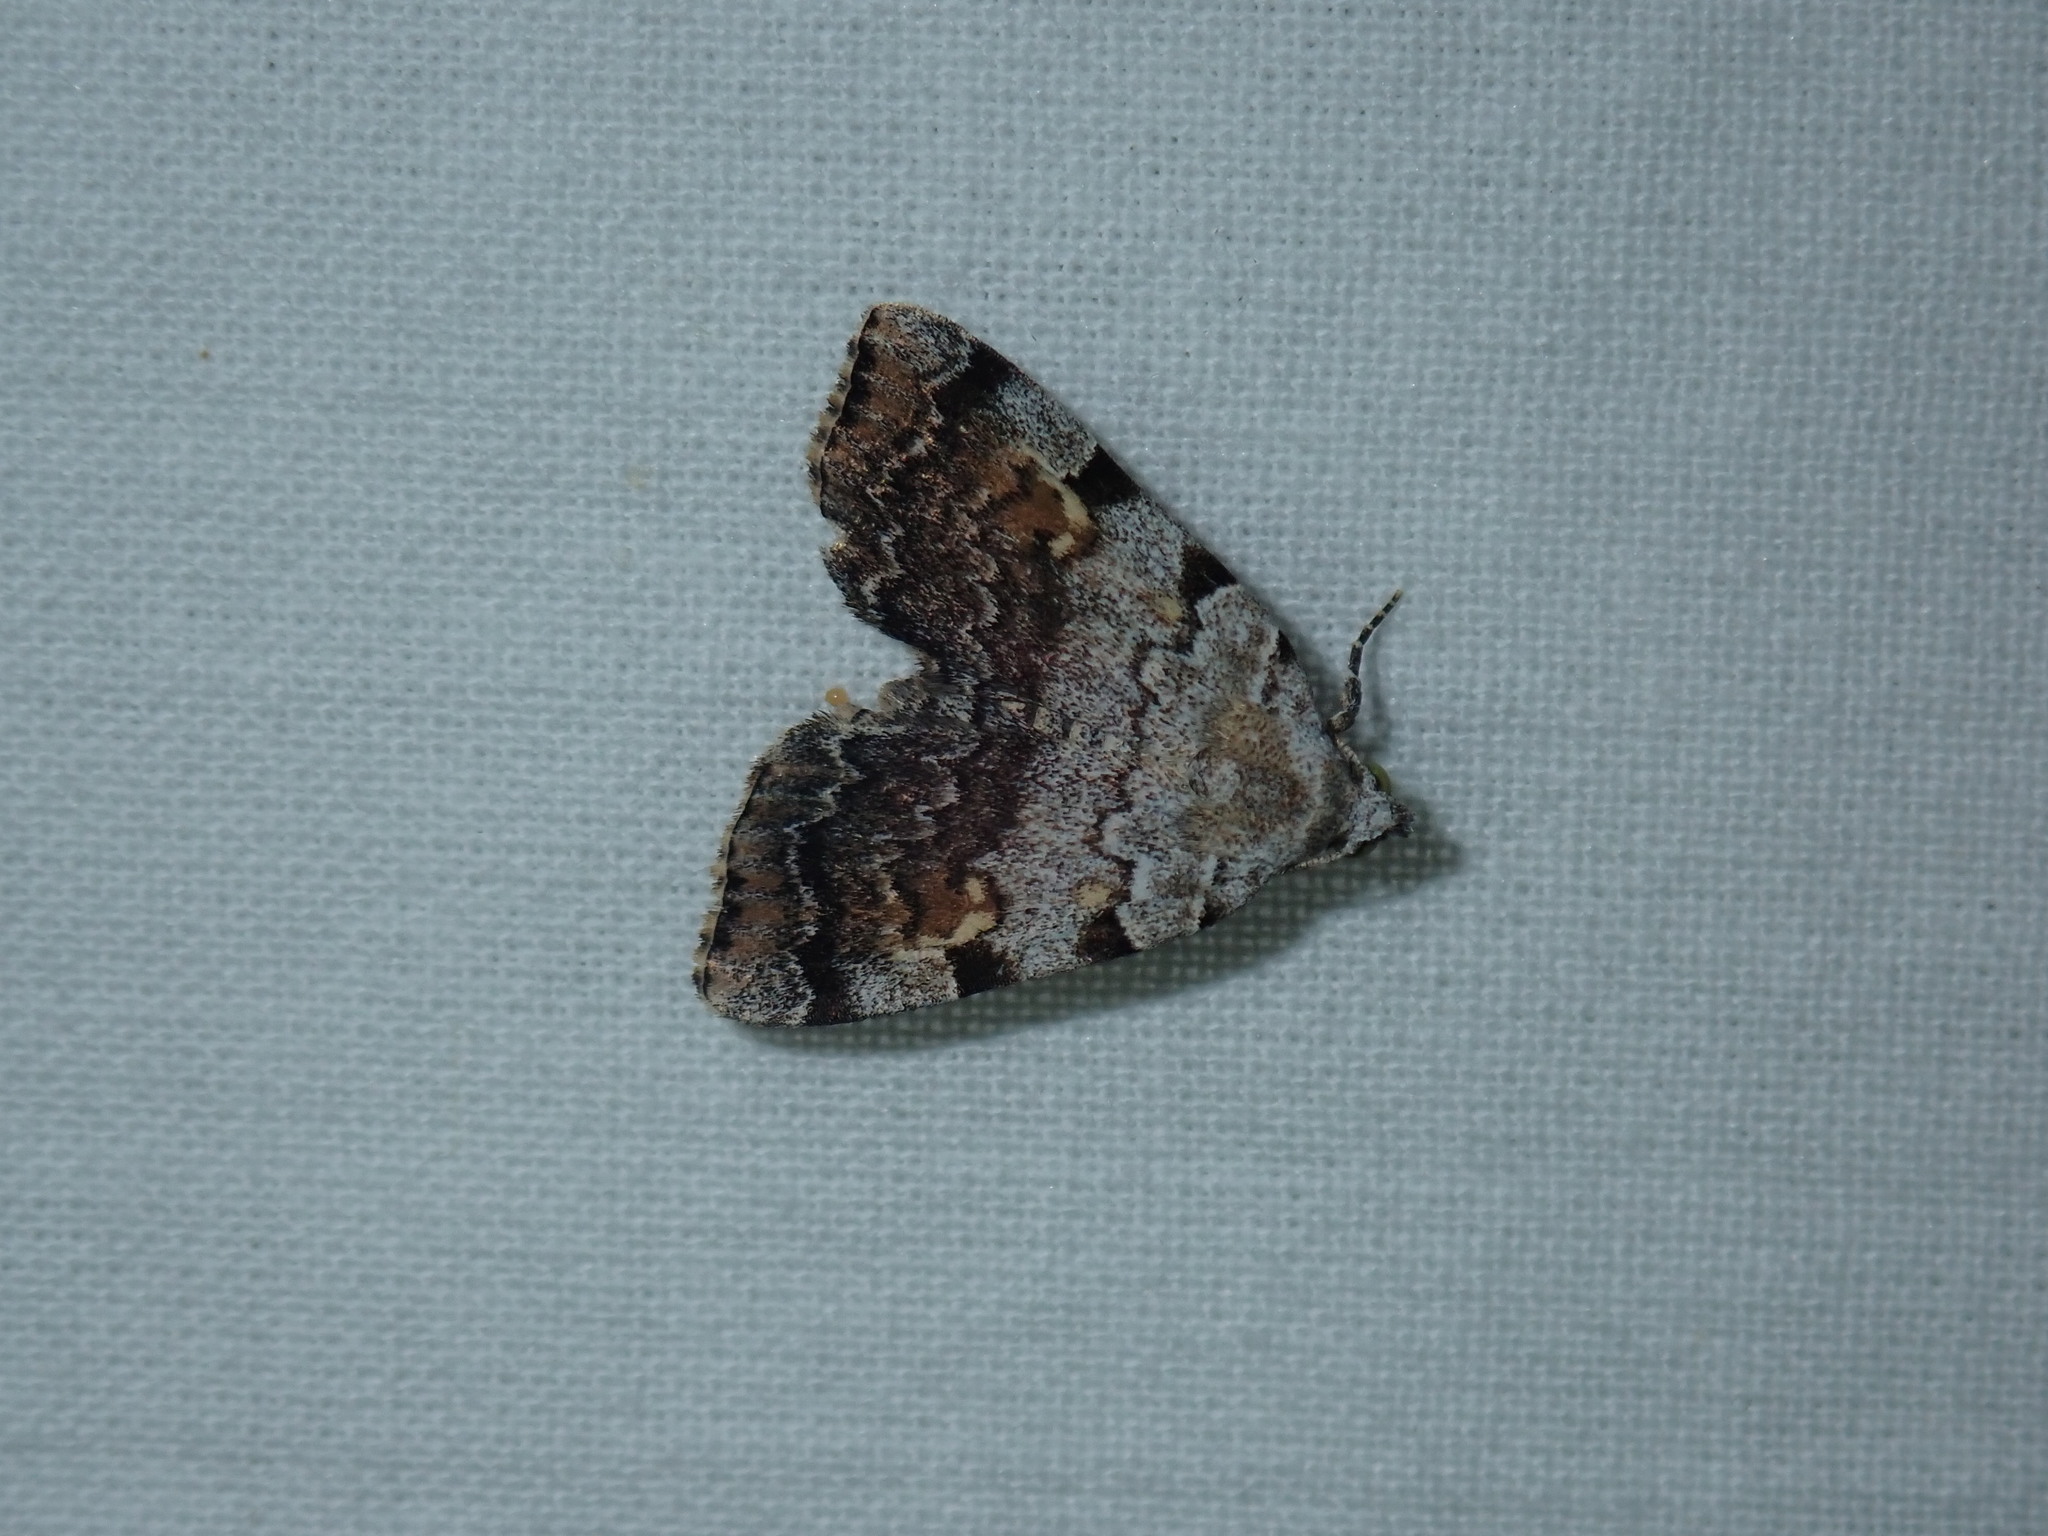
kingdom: Animalia
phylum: Arthropoda
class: Insecta
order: Lepidoptera
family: Erebidae
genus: Idia
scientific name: Idia americalis
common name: American idia moth
